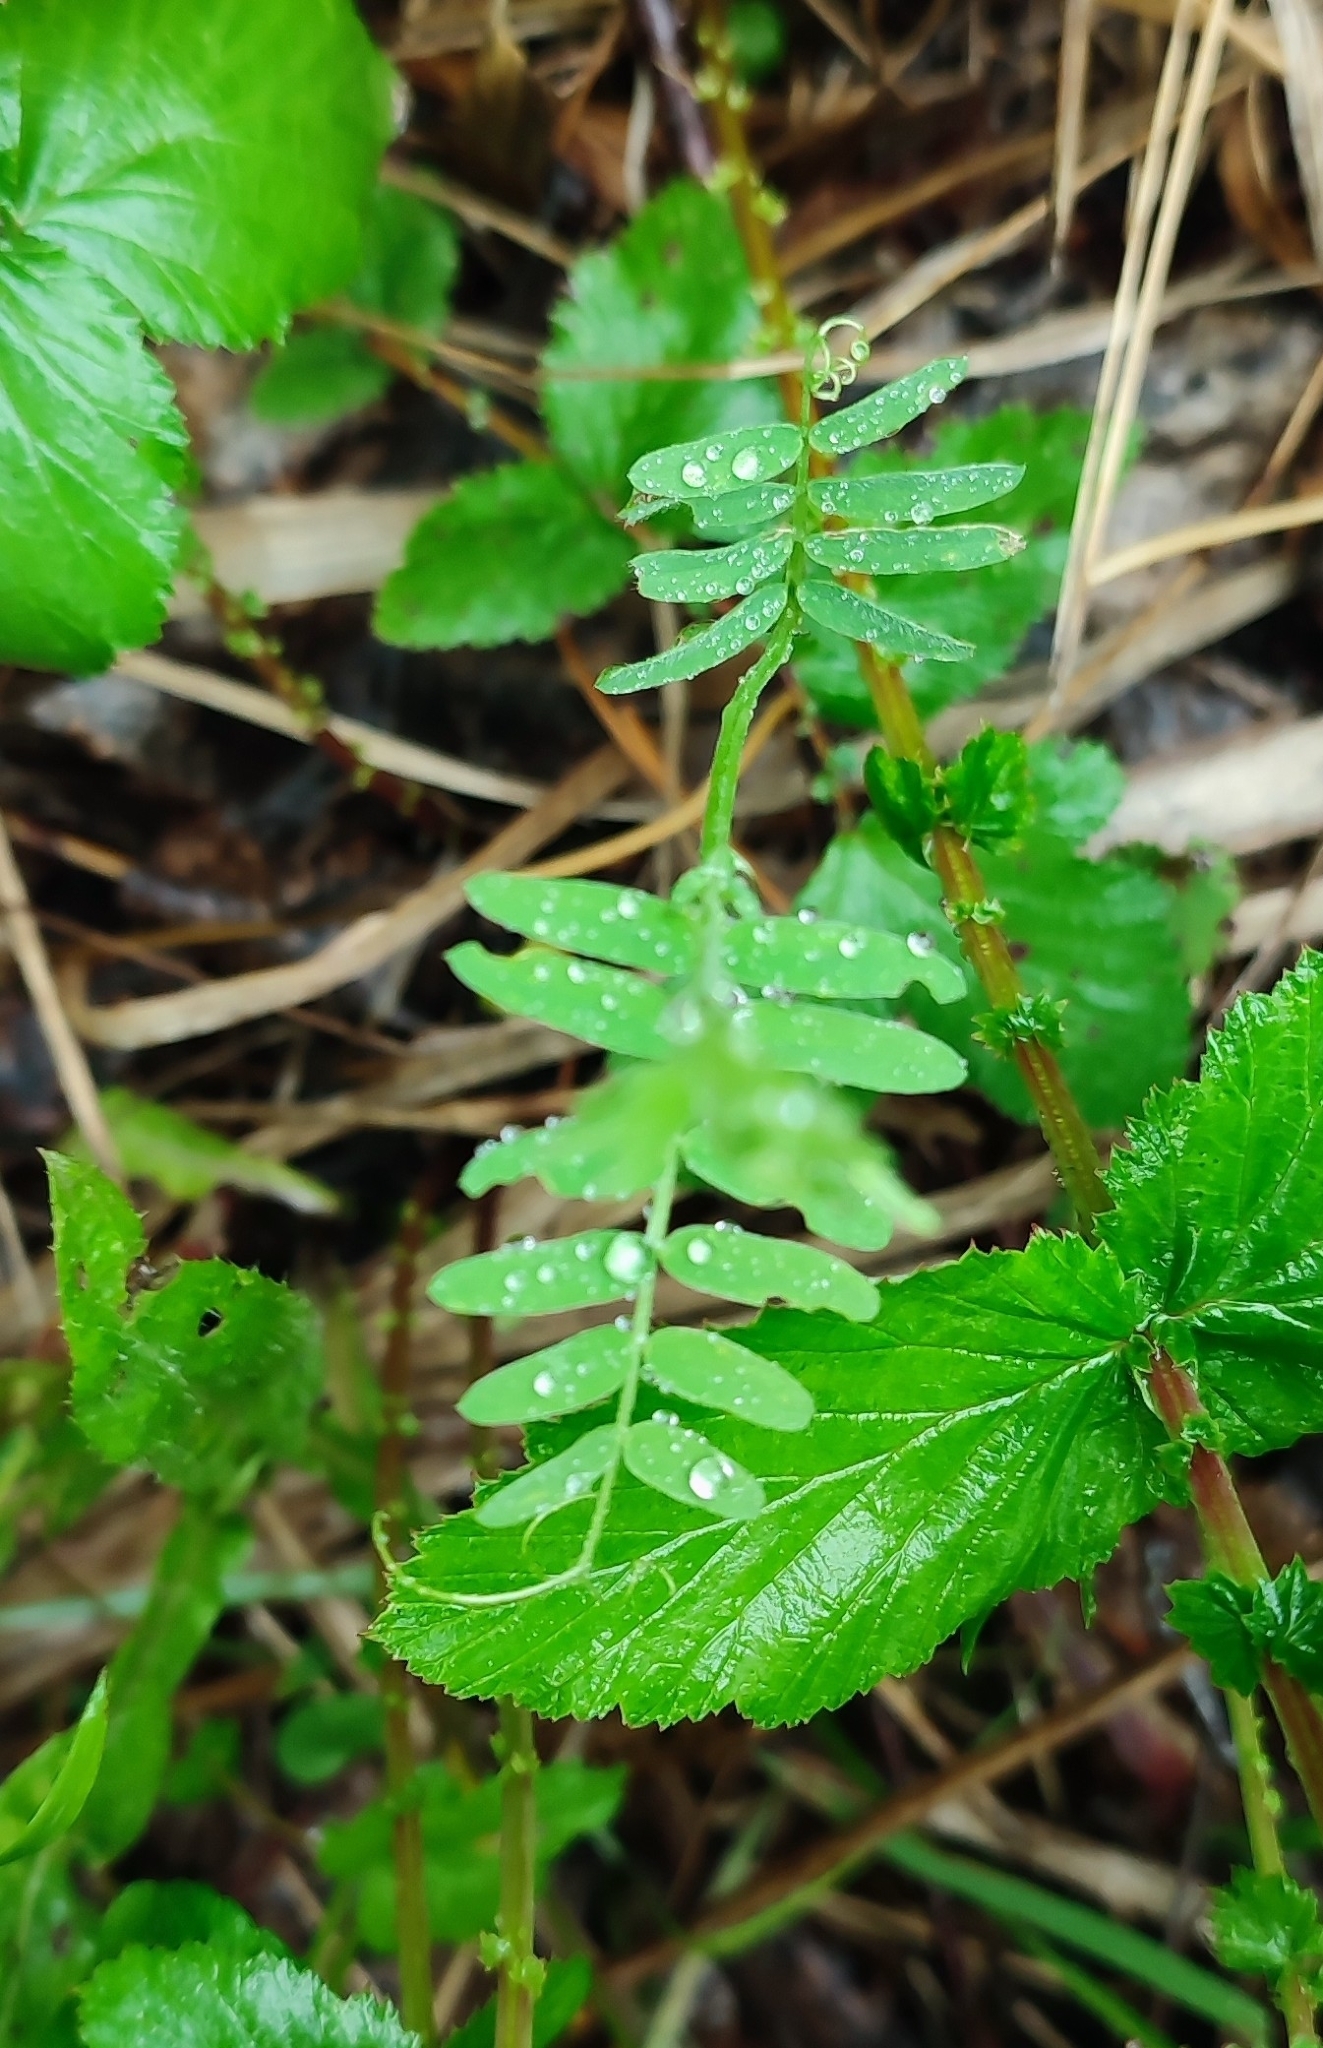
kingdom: Plantae
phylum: Tracheophyta
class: Magnoliopsida
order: Fabales
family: Fabaceae
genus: Vicia
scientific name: Vicia cracca
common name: Bird vetch
